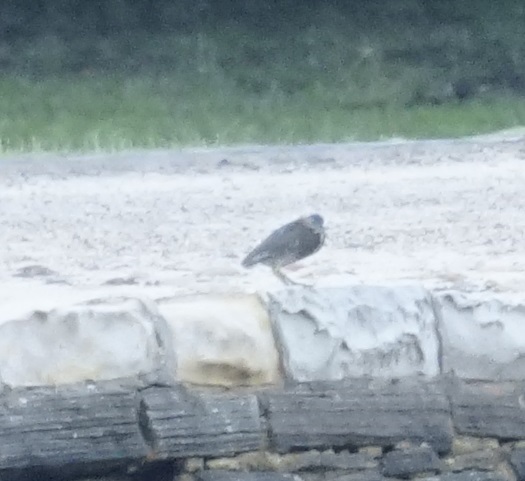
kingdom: Animalia
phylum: Chordata
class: Aves
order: Pelecaniformes
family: Ardeidae
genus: Butorides
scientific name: Butorides striata
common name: Striated heron
